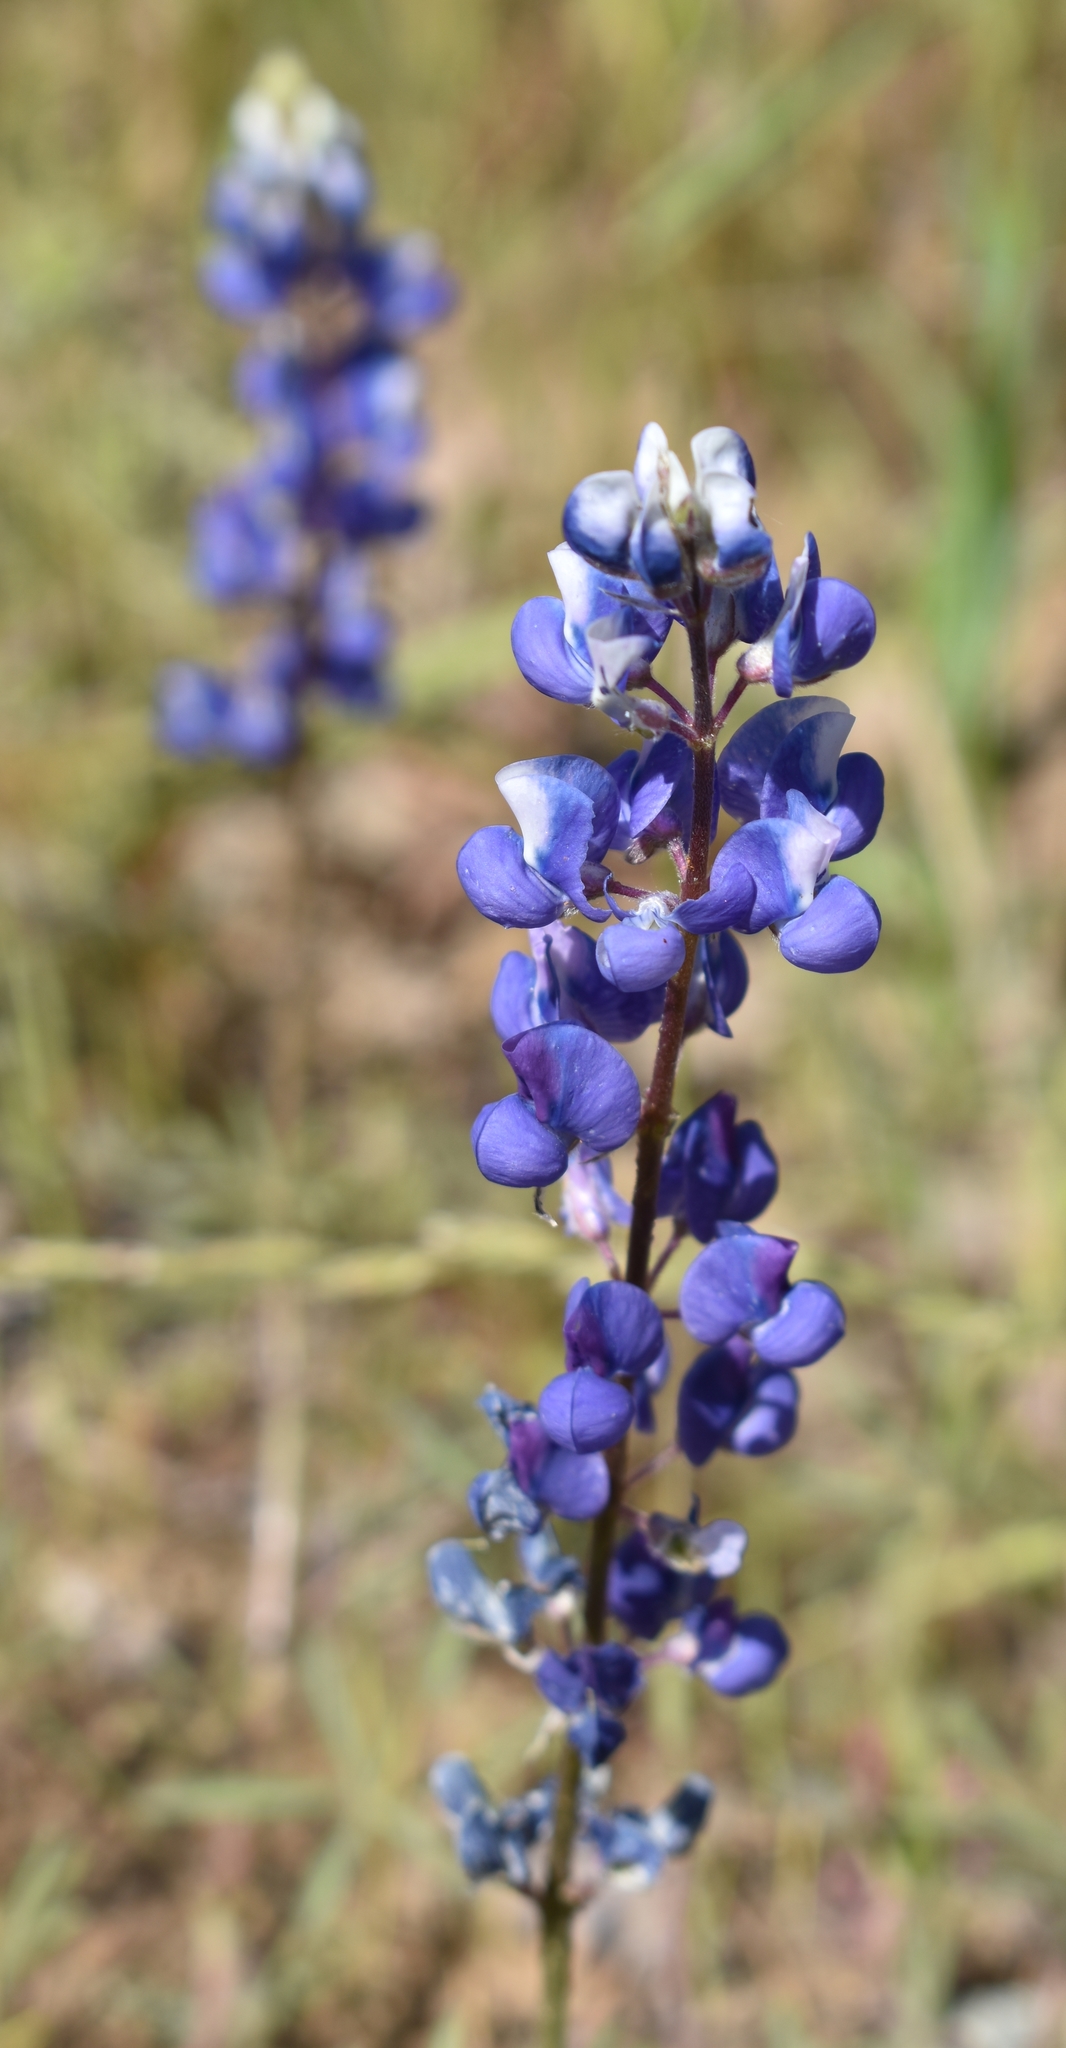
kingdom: Plantae
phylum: Tracheophyta
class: Magnoliopsida
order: Fabales
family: Fabaceae
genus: Lupinus
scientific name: Lupinus nanus
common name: Orean blue lupin
